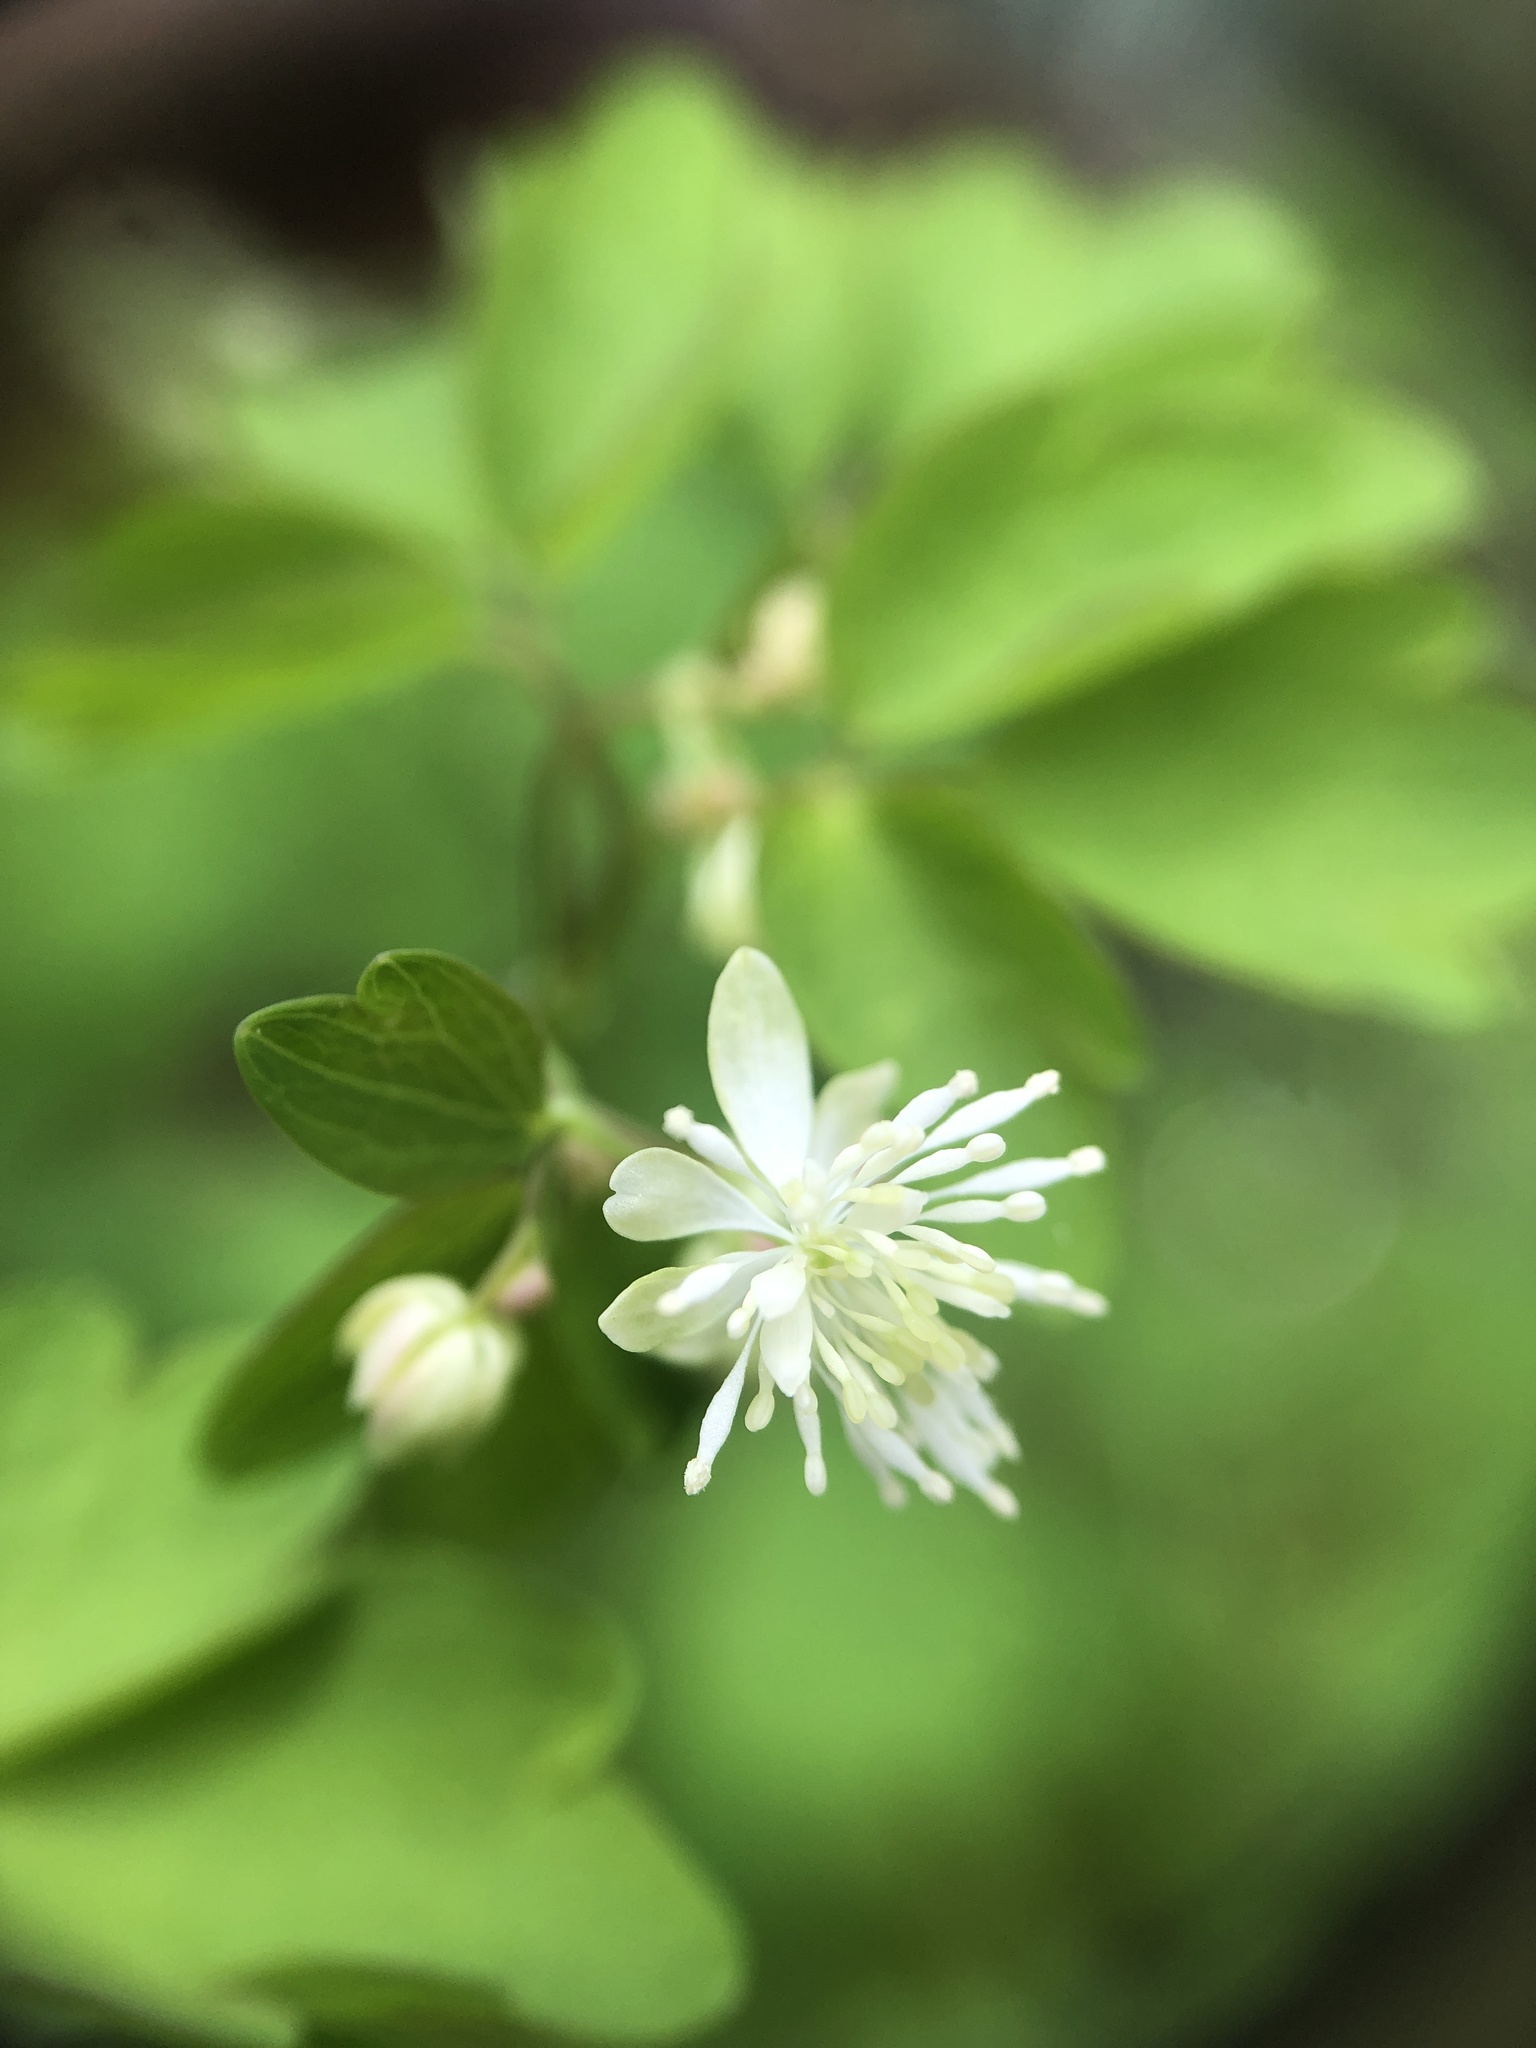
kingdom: Plantae
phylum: Tracheophyta
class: Magnoliopsida
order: Ranunculales
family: Ranunculaceae
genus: Thalictrum
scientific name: Thalictrum clavatum
